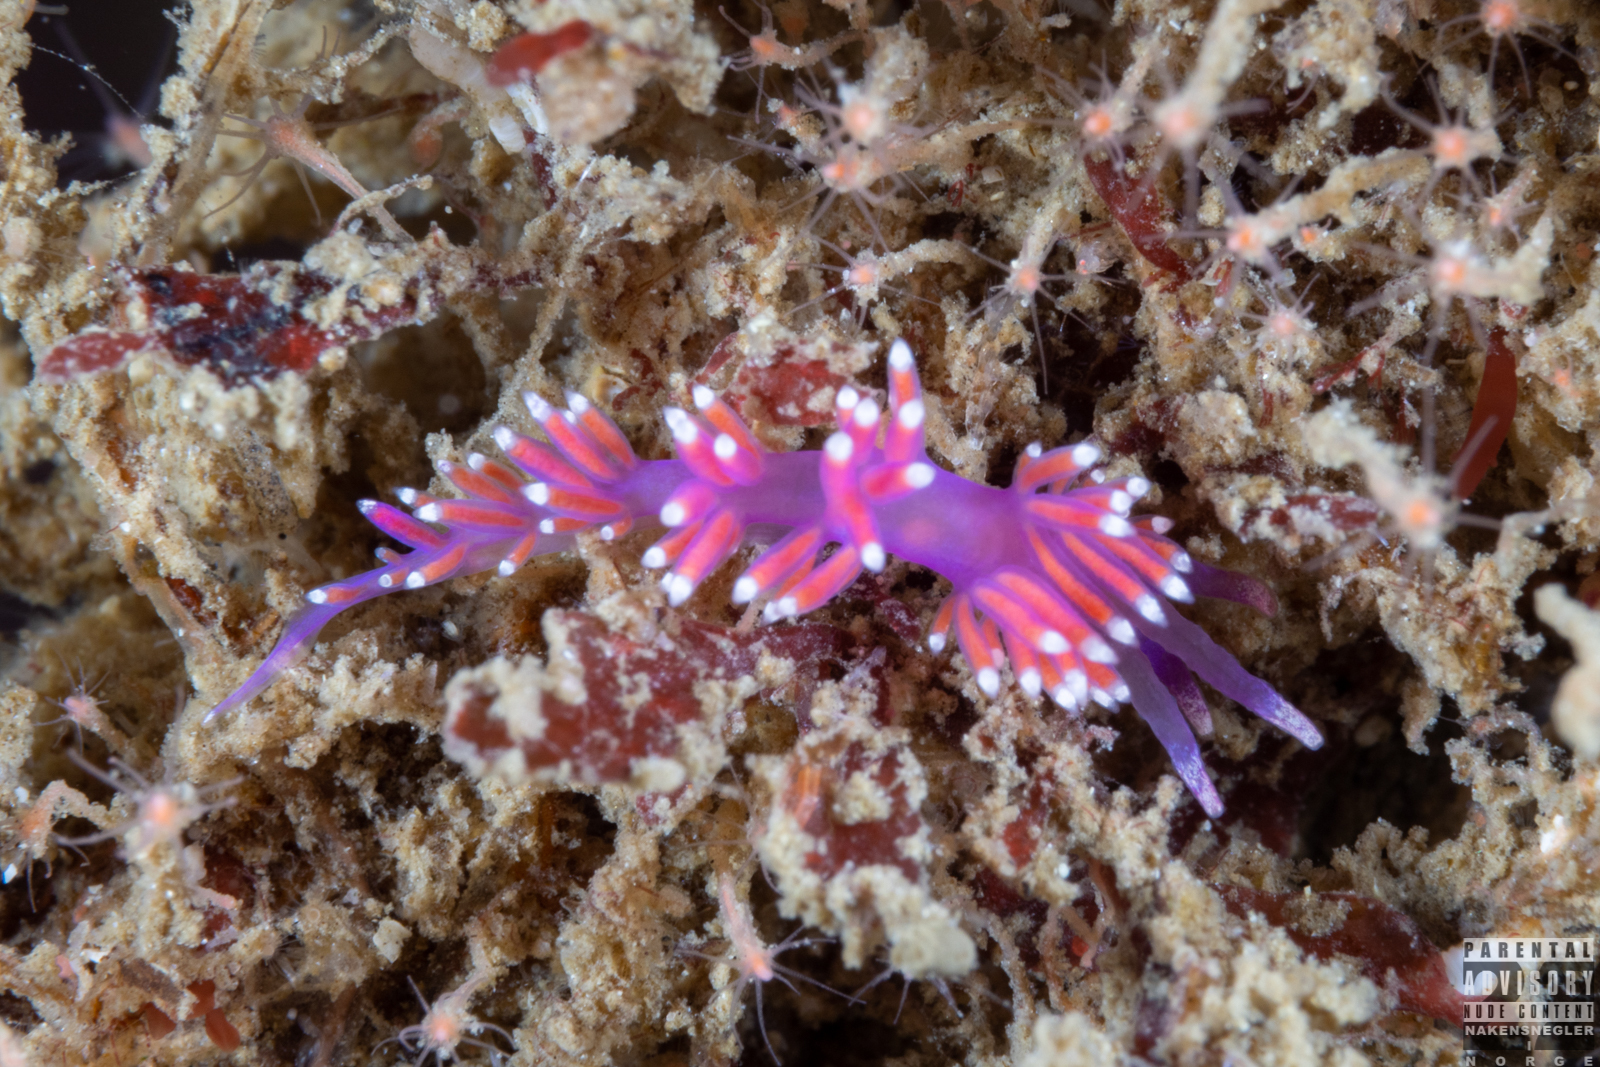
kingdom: Animalia
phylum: Mollusca
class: Gastropoda
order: Nudibranchia
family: Flabellinidae
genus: Edmundsella
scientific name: Edmundsella pedata
